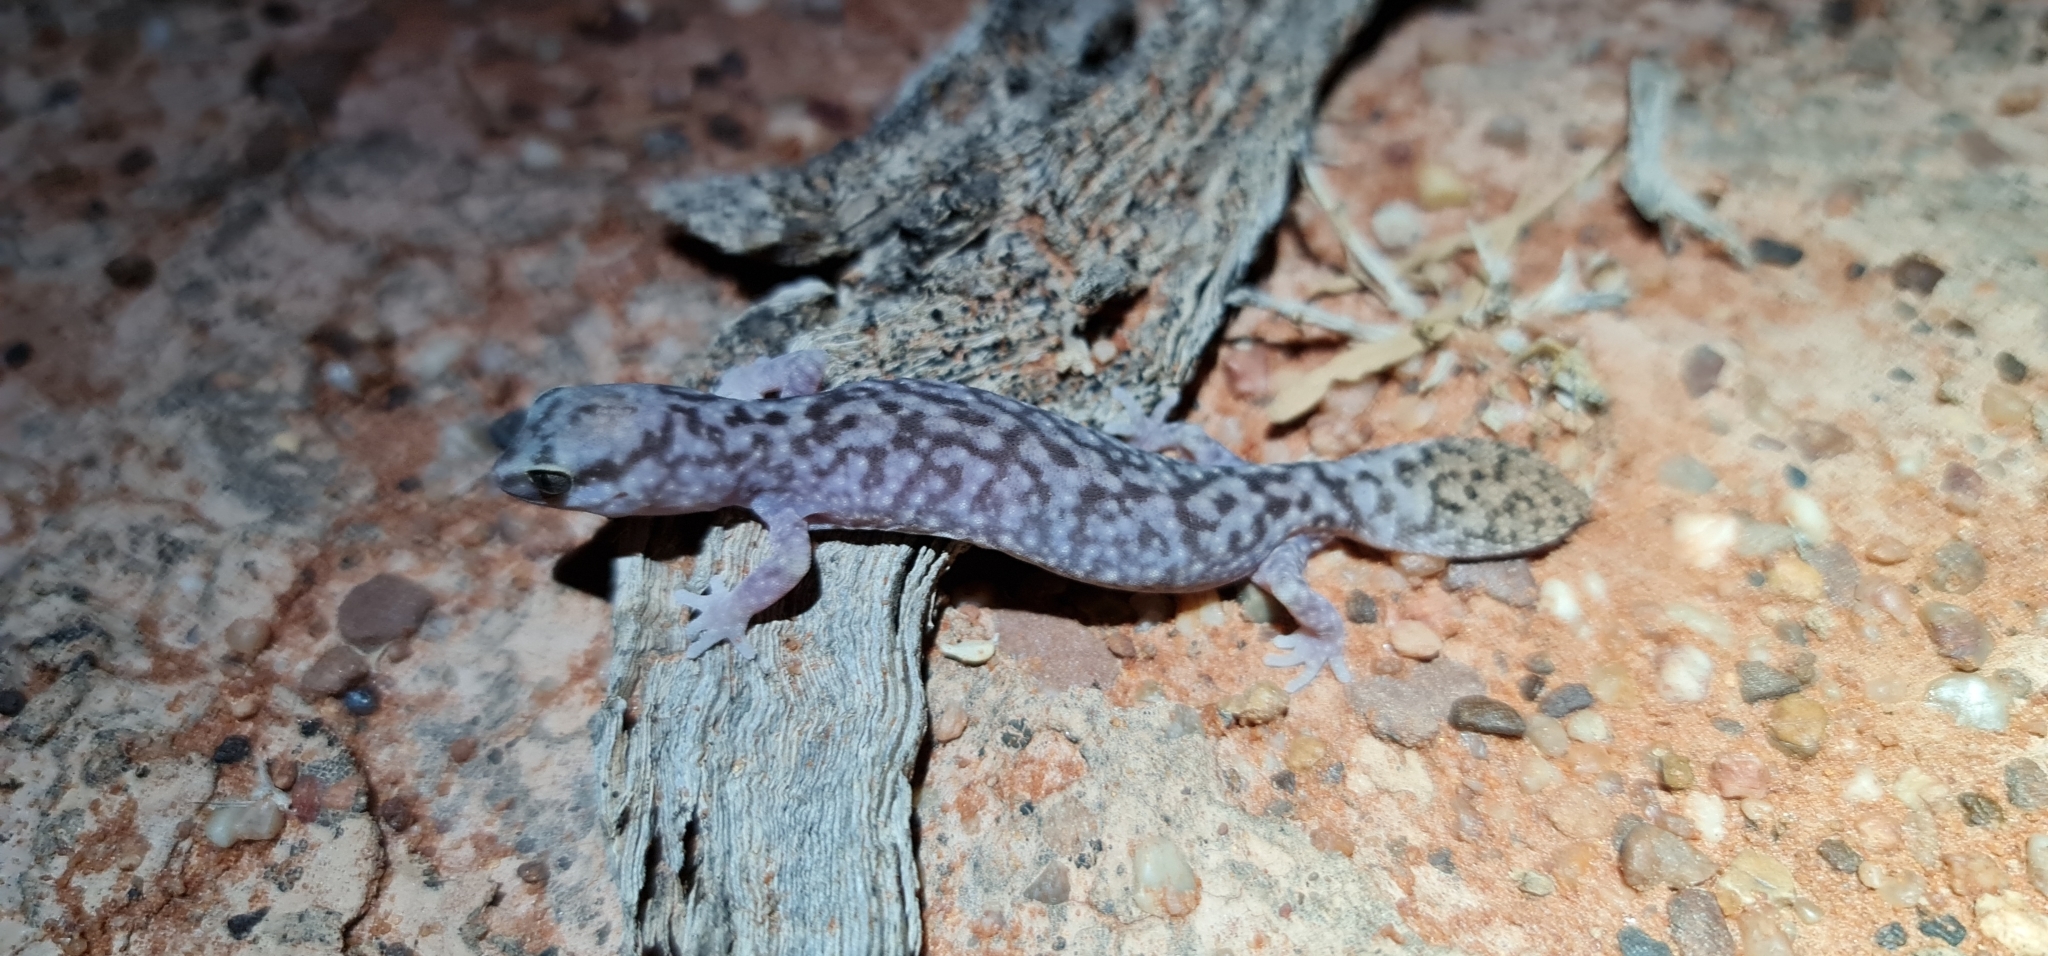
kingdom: Animalia
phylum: Chordata
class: Squamata
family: Diplodactylidae
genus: Diplodactylus
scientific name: Diplodactylus conspicillatus
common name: Burrow-plug gecko
